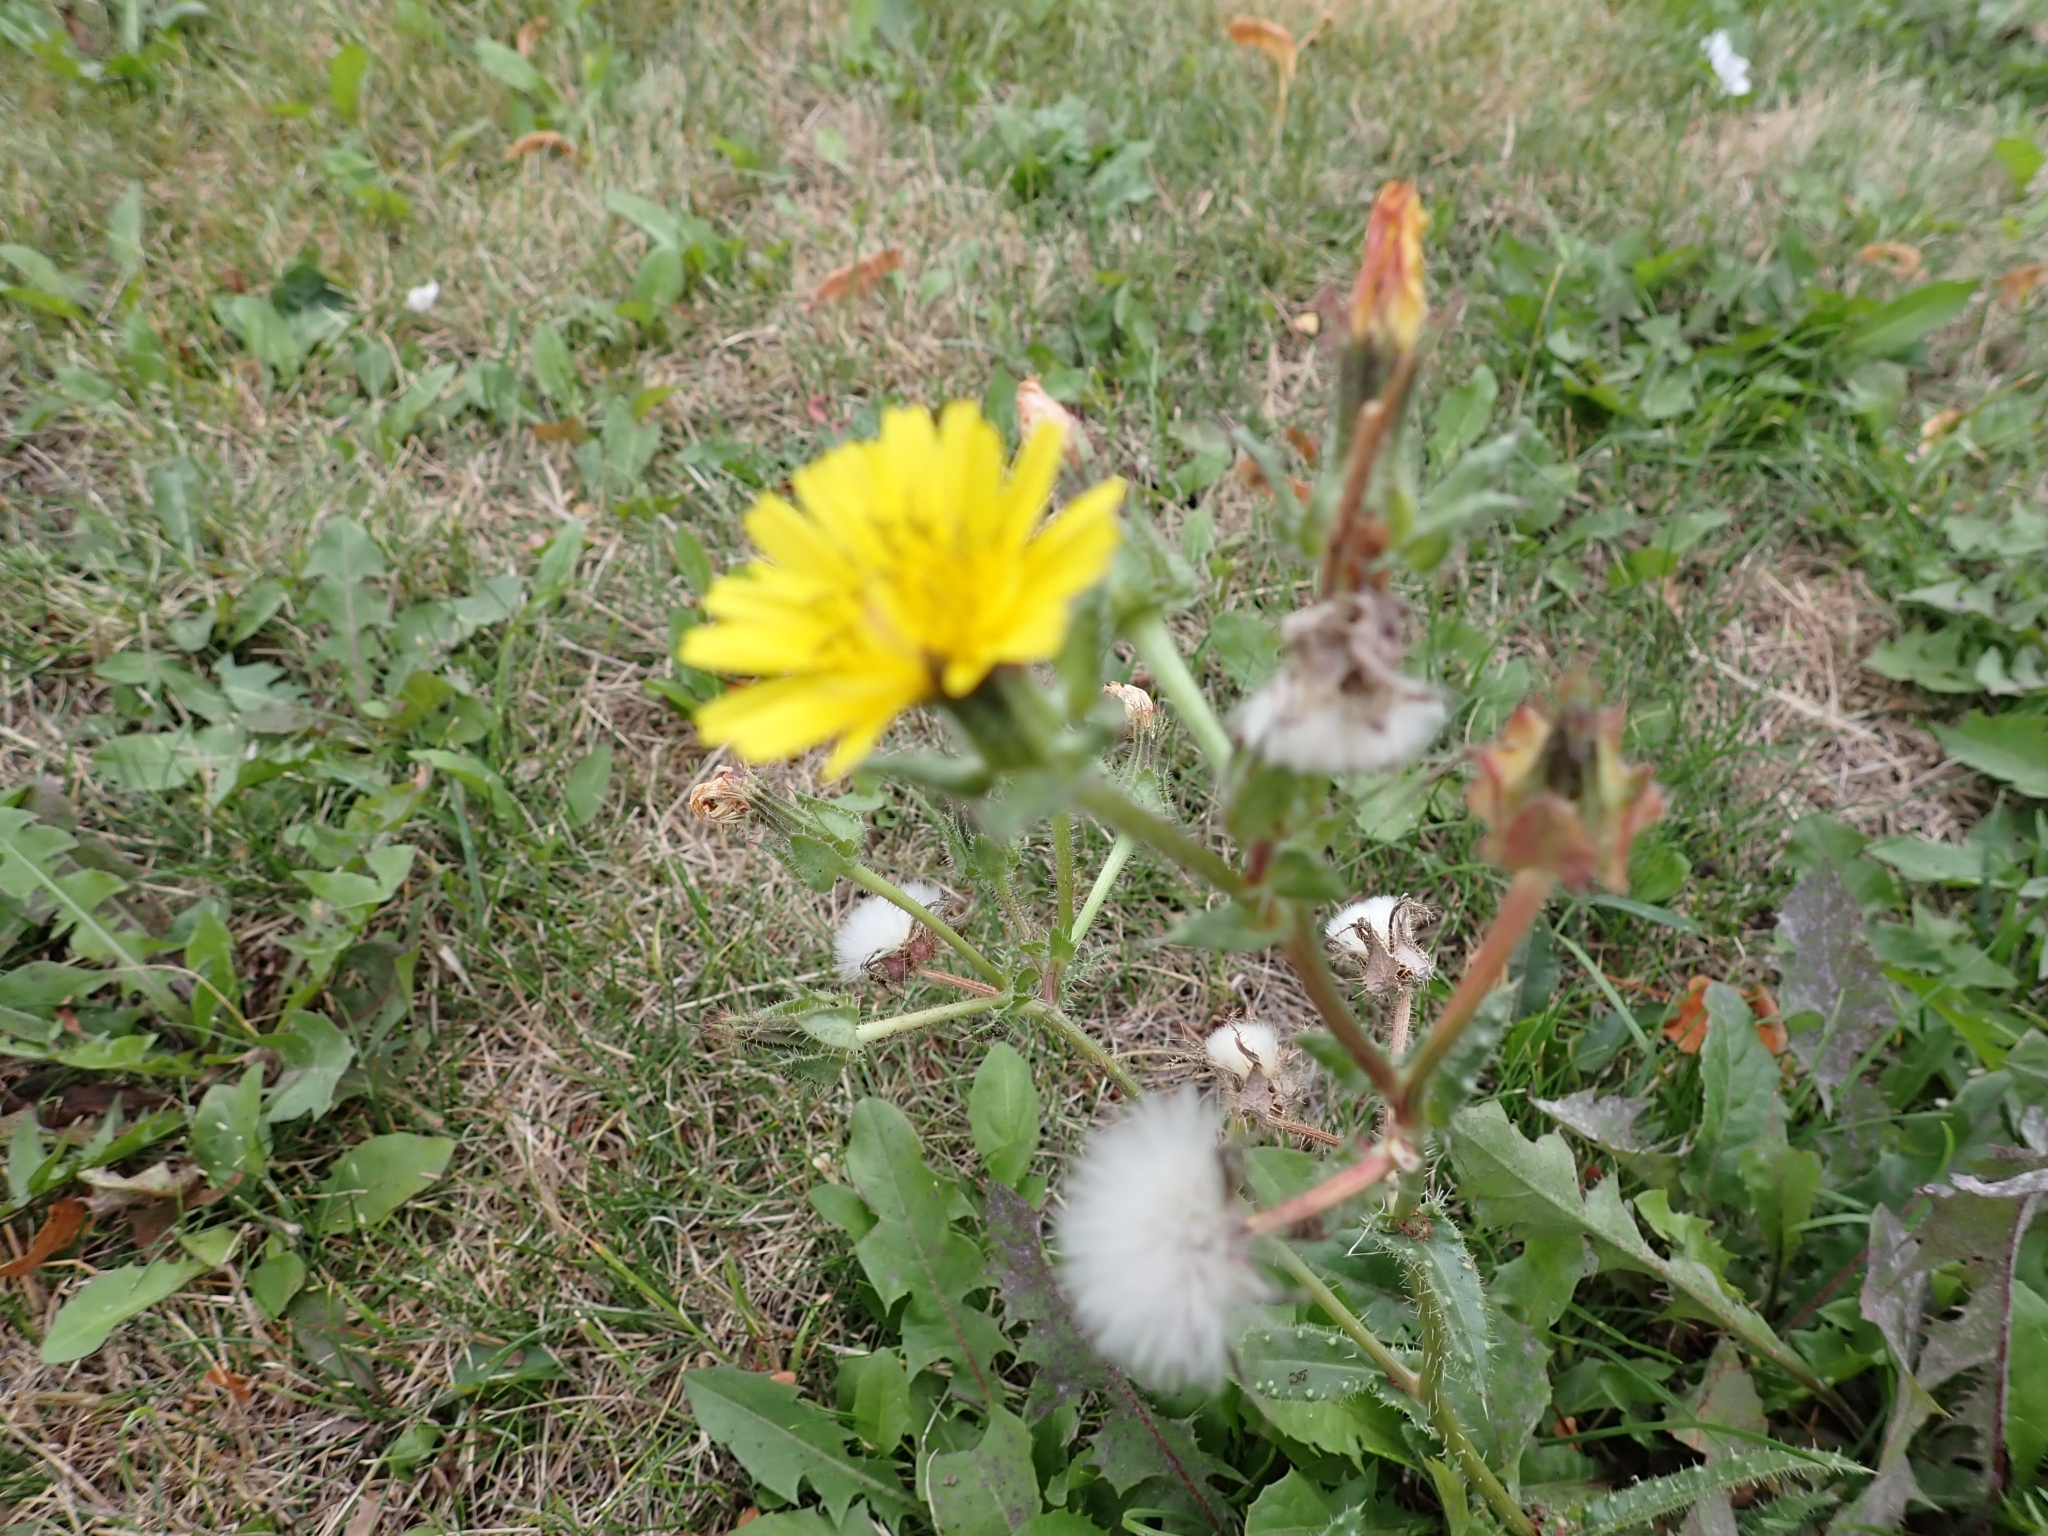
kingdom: Plantae
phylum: Tracheophyta
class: Magnoliopsida
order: Asterales
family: Asteraceae
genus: Helminthotheca
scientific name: Helminthotheca echioides
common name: Ox-tongue
